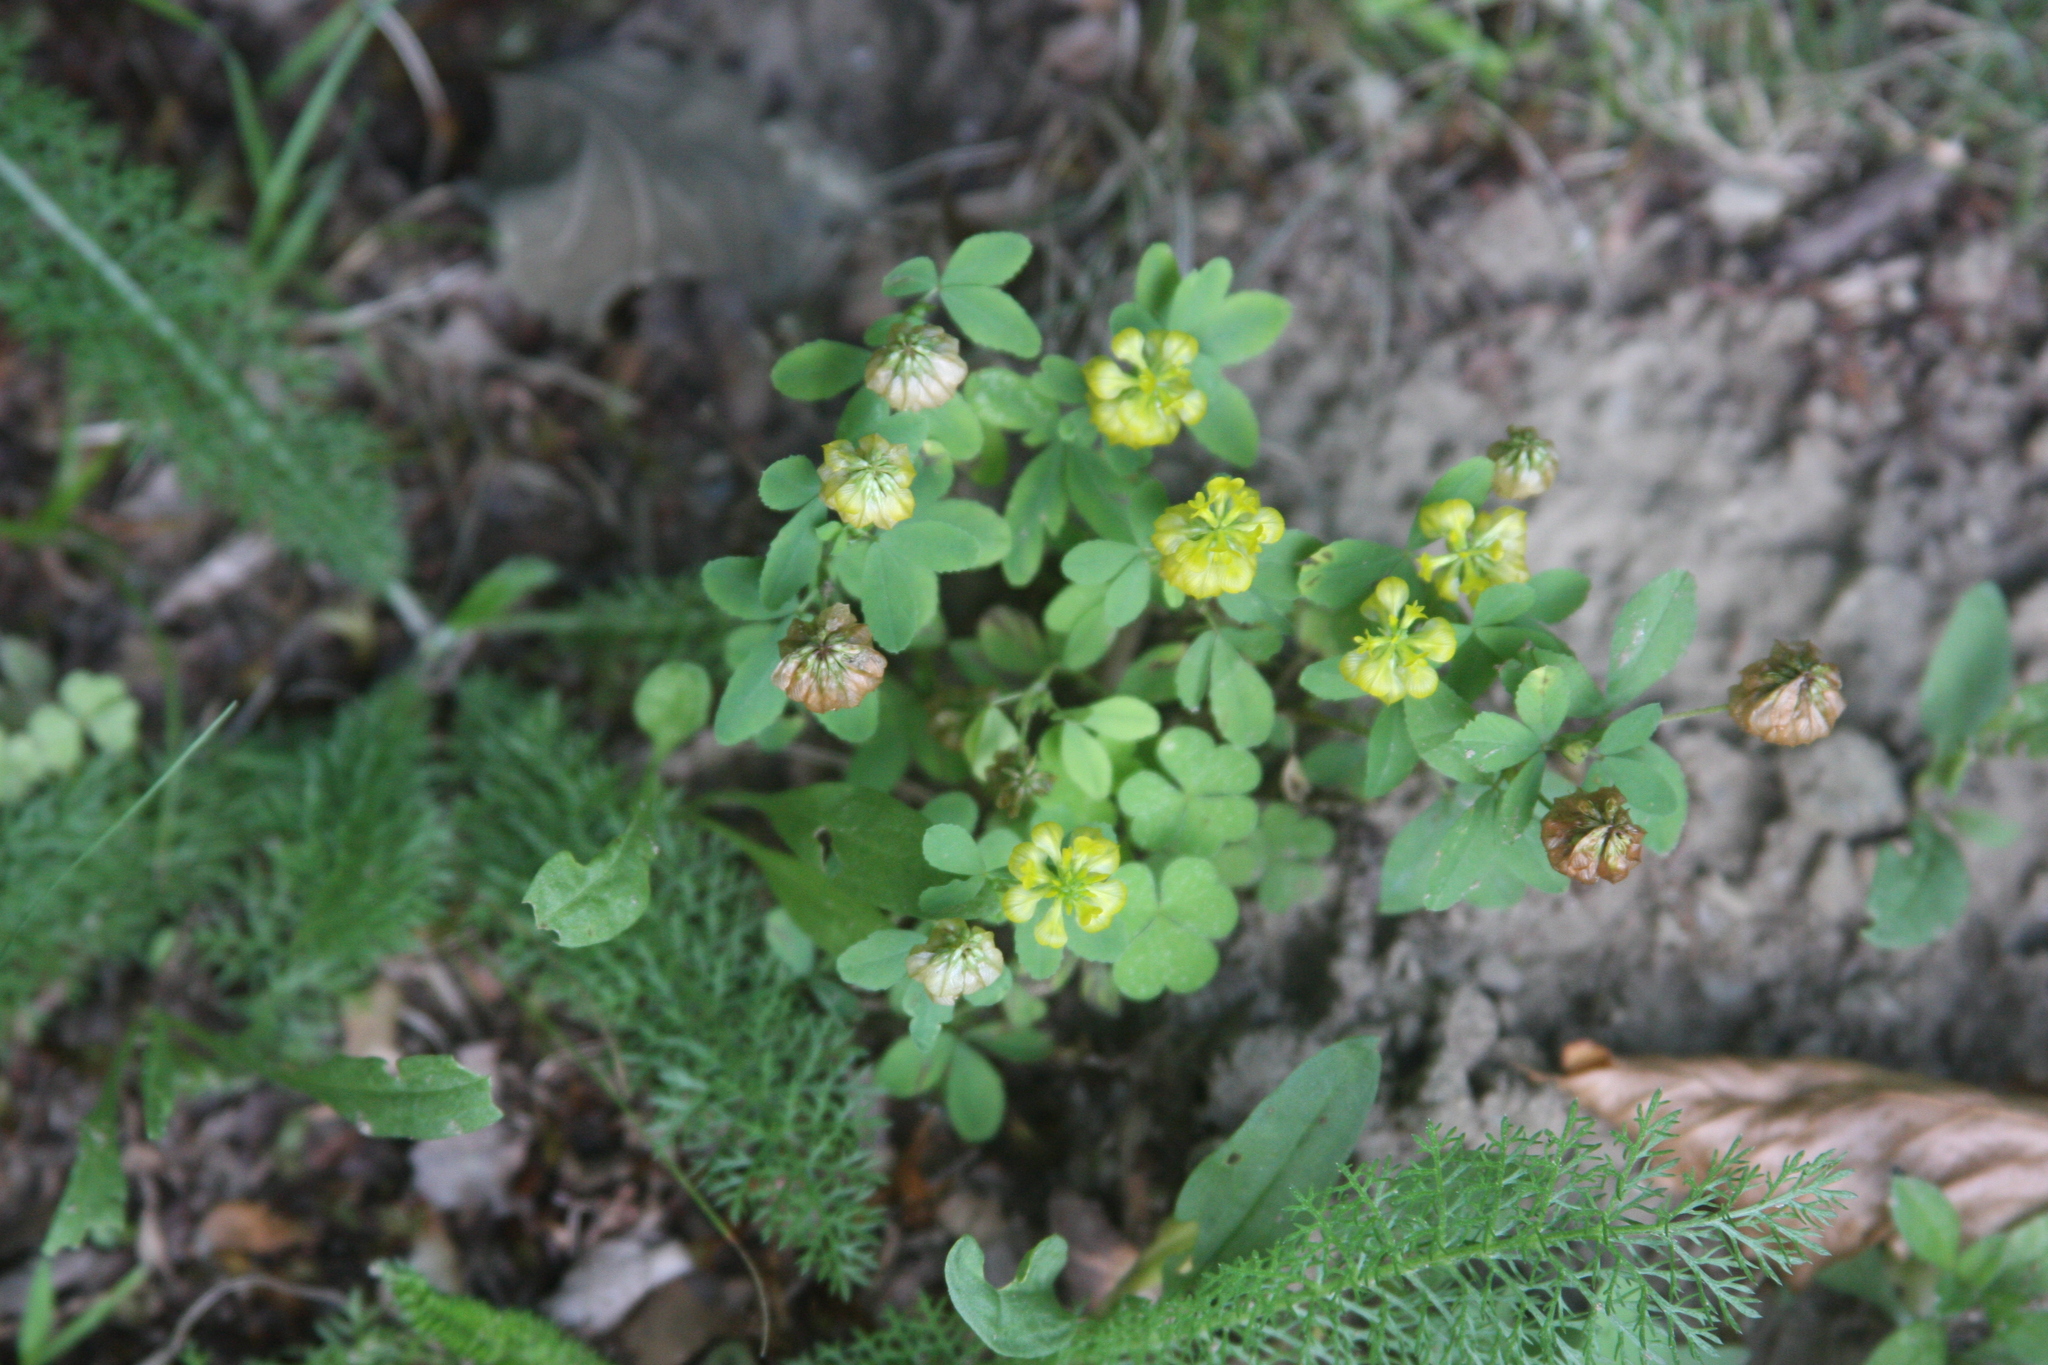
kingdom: Plantae
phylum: Tracheophyta
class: Magnoliopsida
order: Fabales
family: Fabaceae
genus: Trifolium
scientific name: Trifolium aureum
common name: Golden clover
